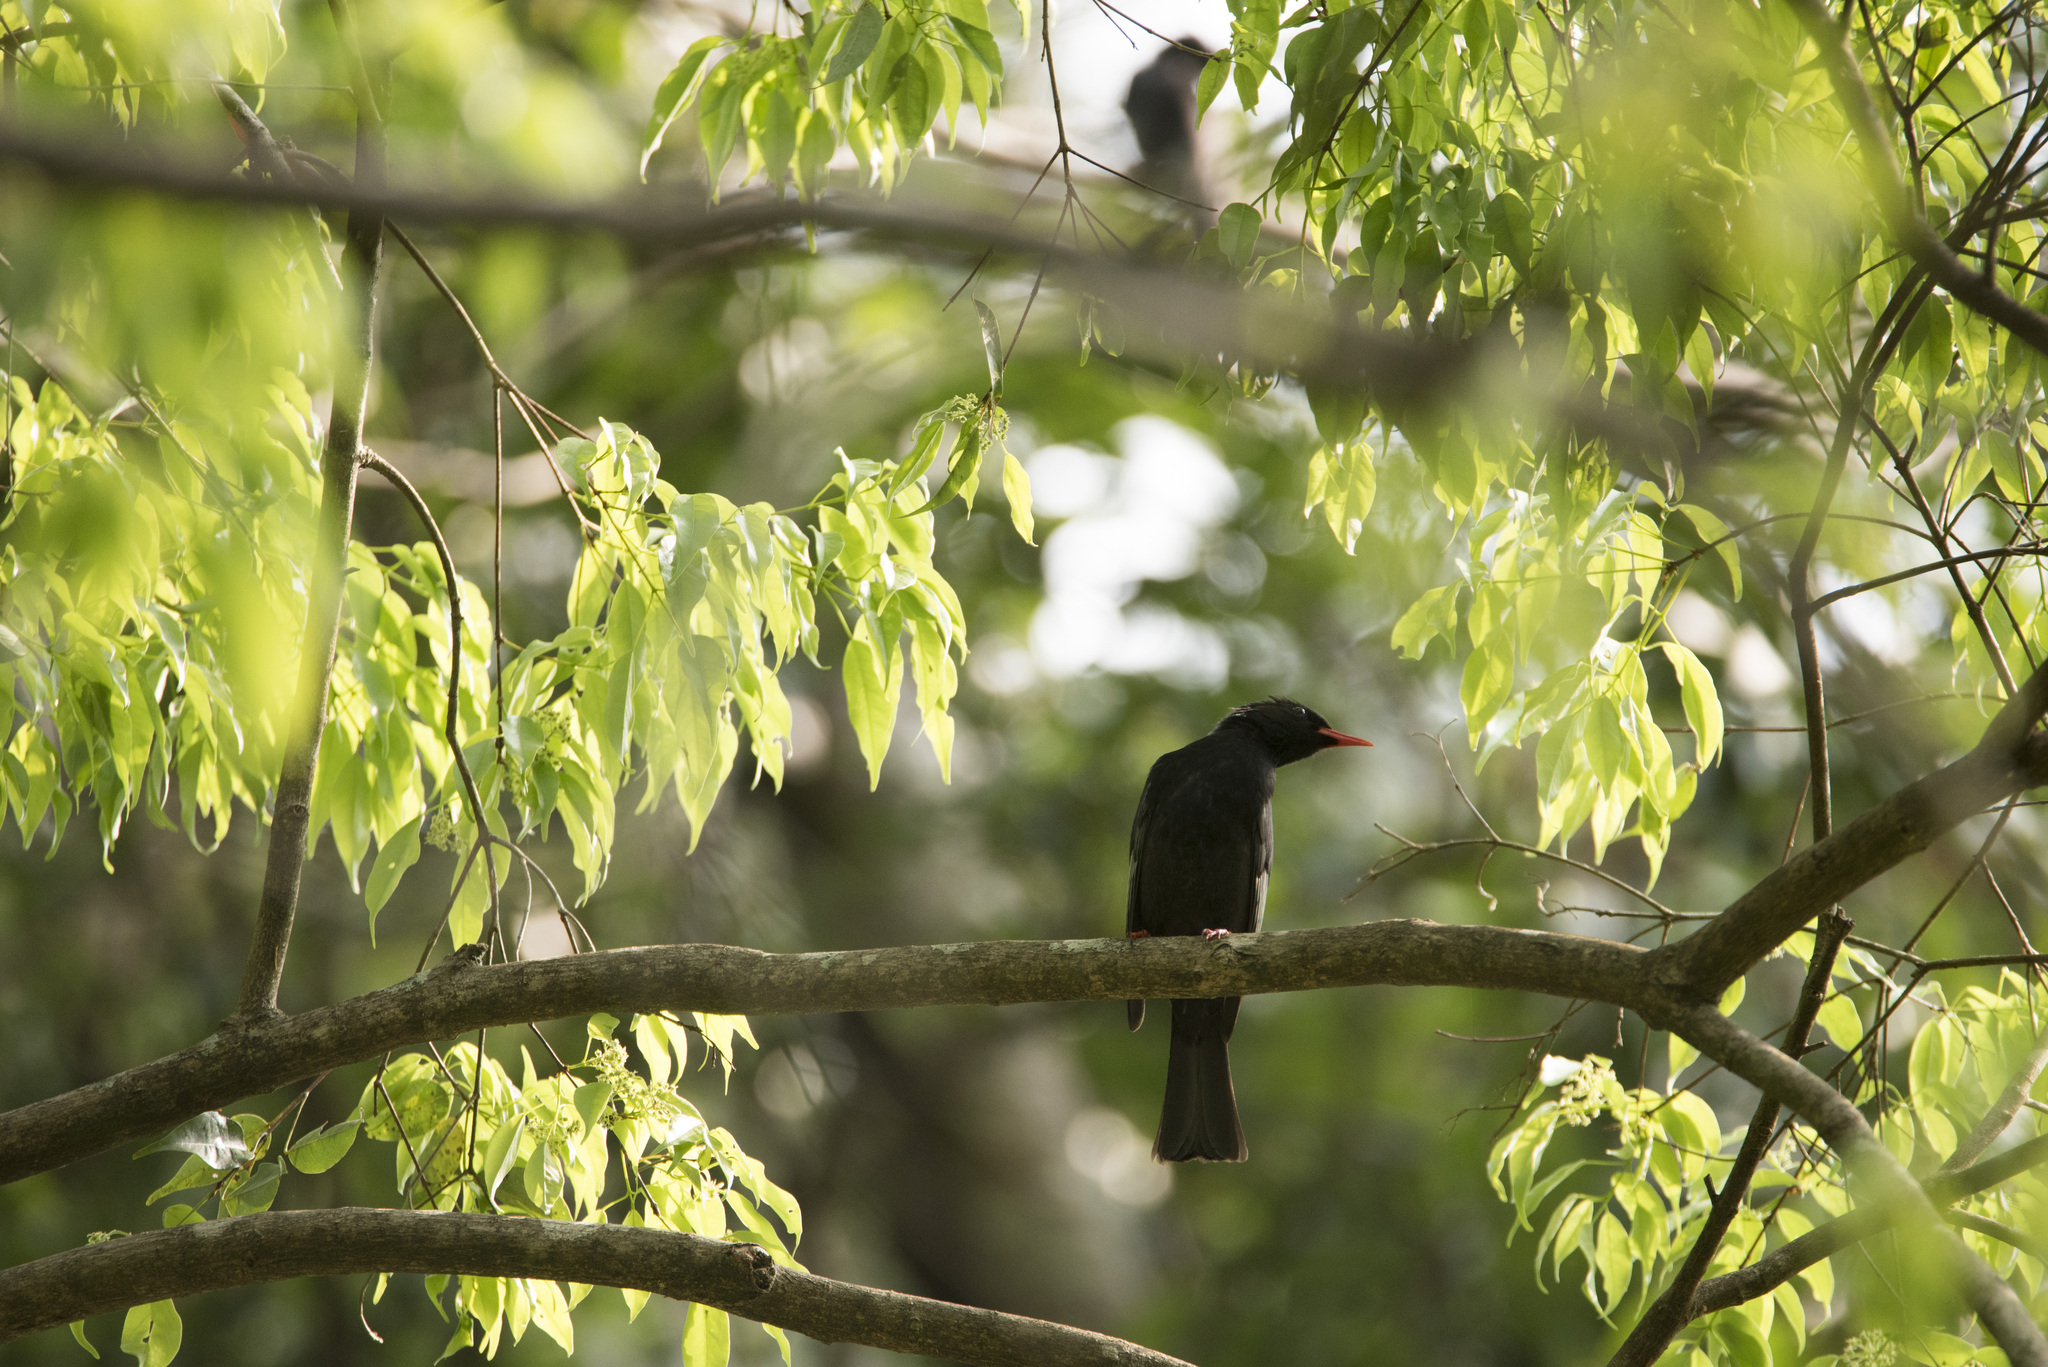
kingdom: Animalia
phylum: Chordata
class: Aves
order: Passeriformes
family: Pycnonotidae
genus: Hypsipetes
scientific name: Hypsipetes leucocephalus
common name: Black bulbul
